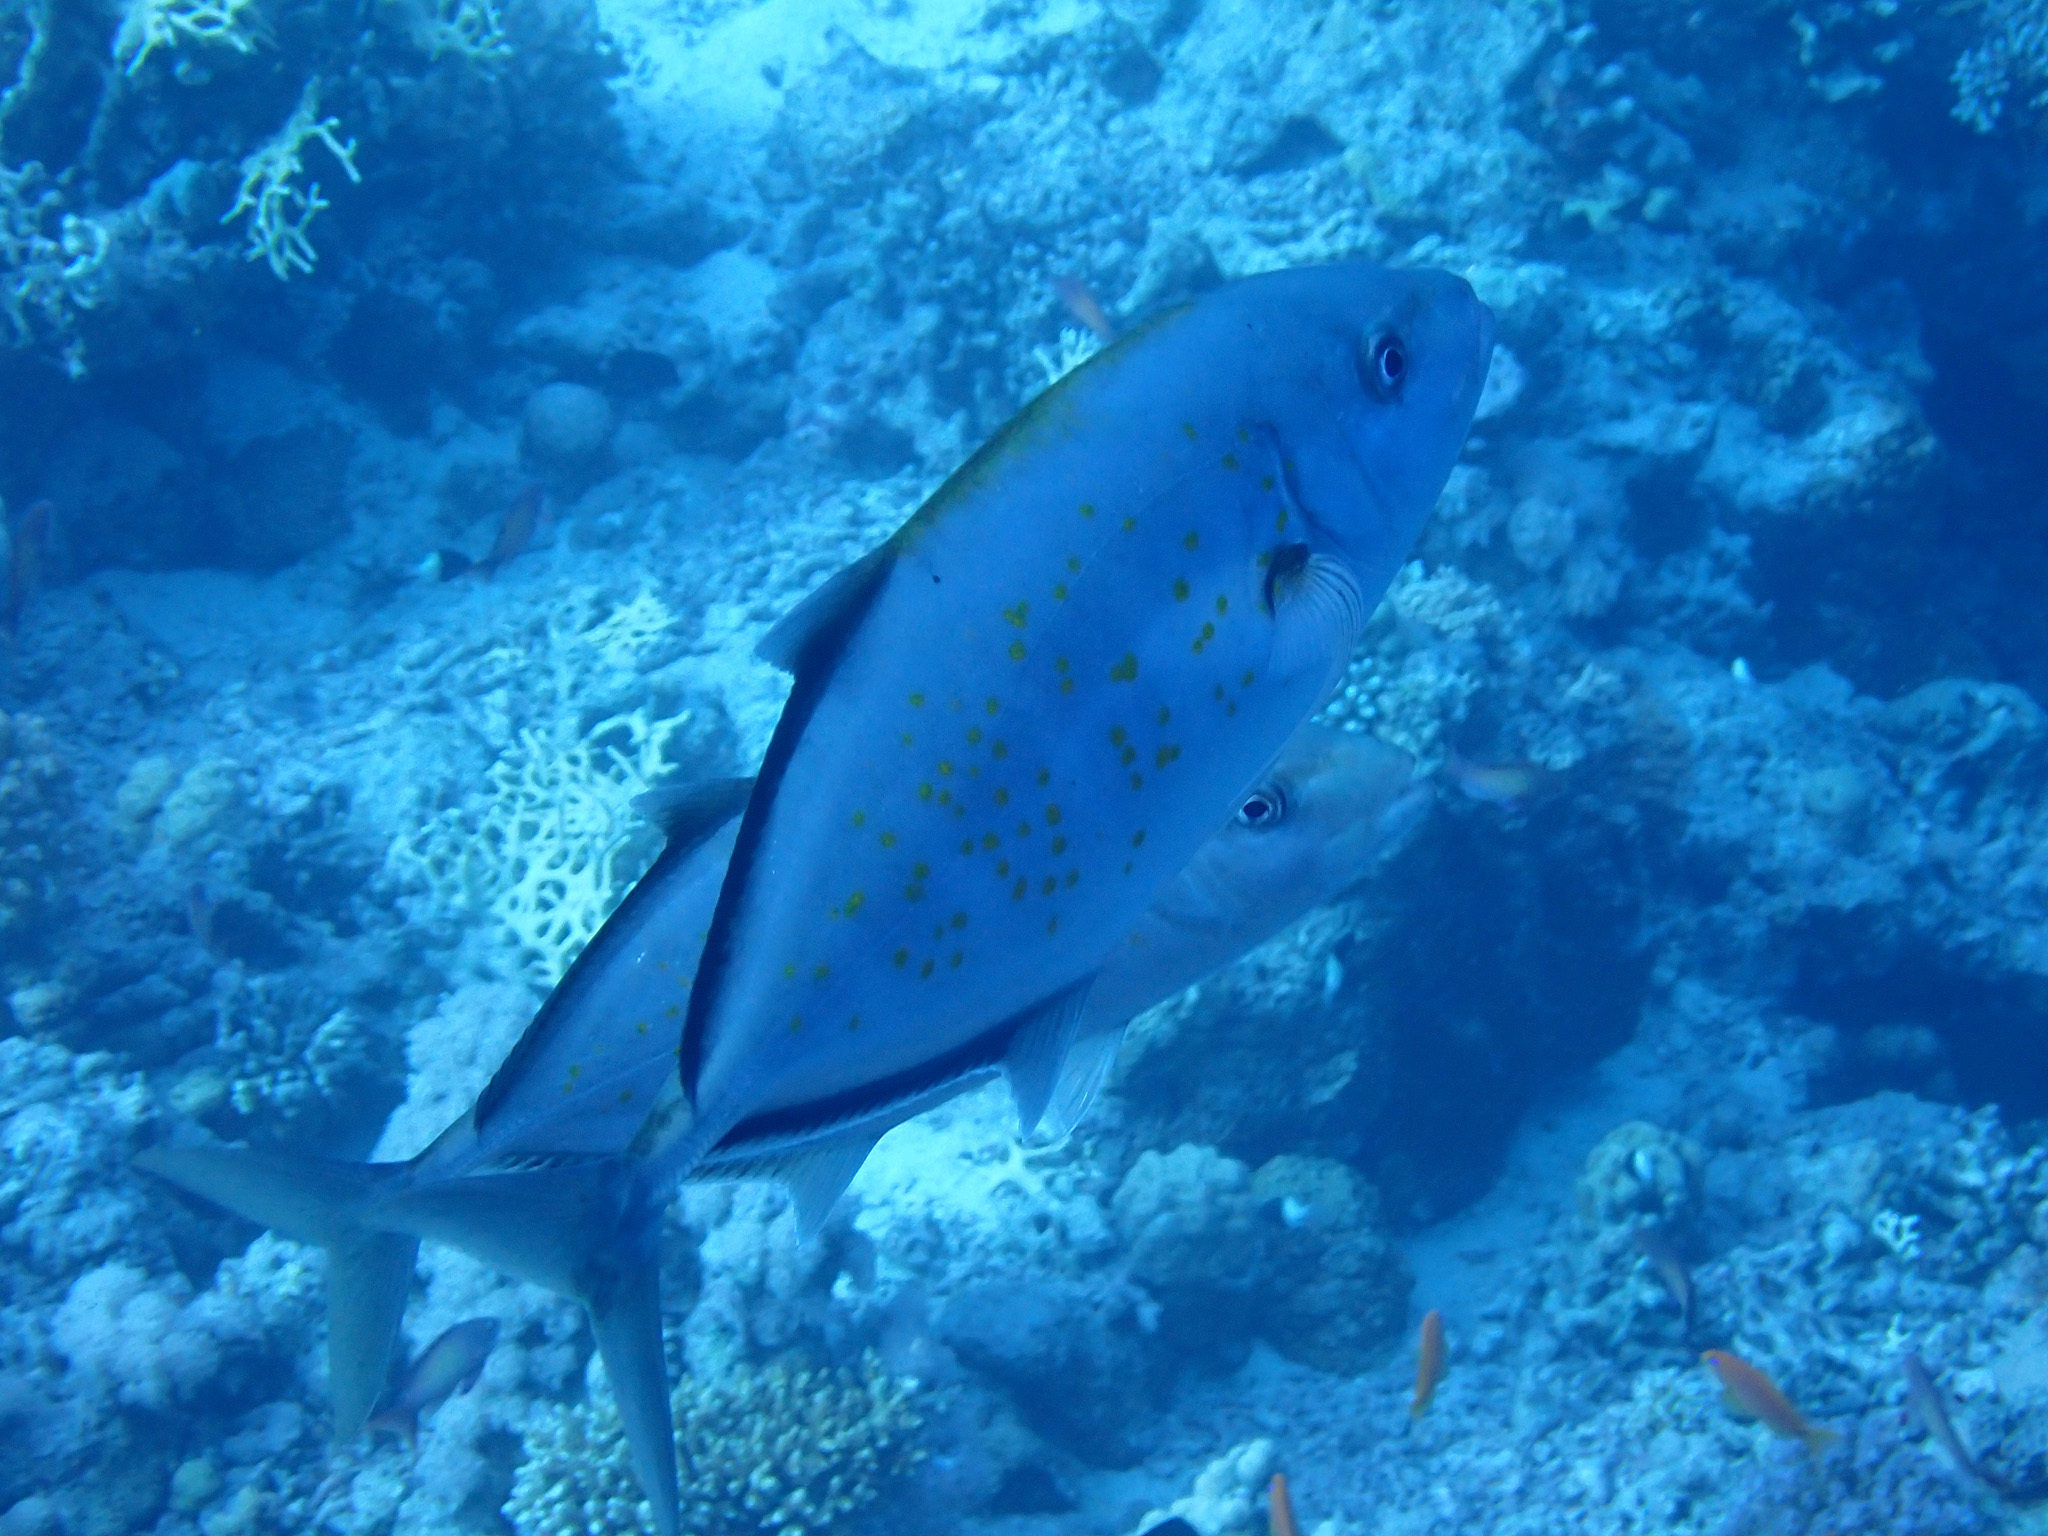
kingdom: Animalia
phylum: Chordata
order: Perciformes
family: Carangidae
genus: Flavocaranx
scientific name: Flavocaranx bajad
